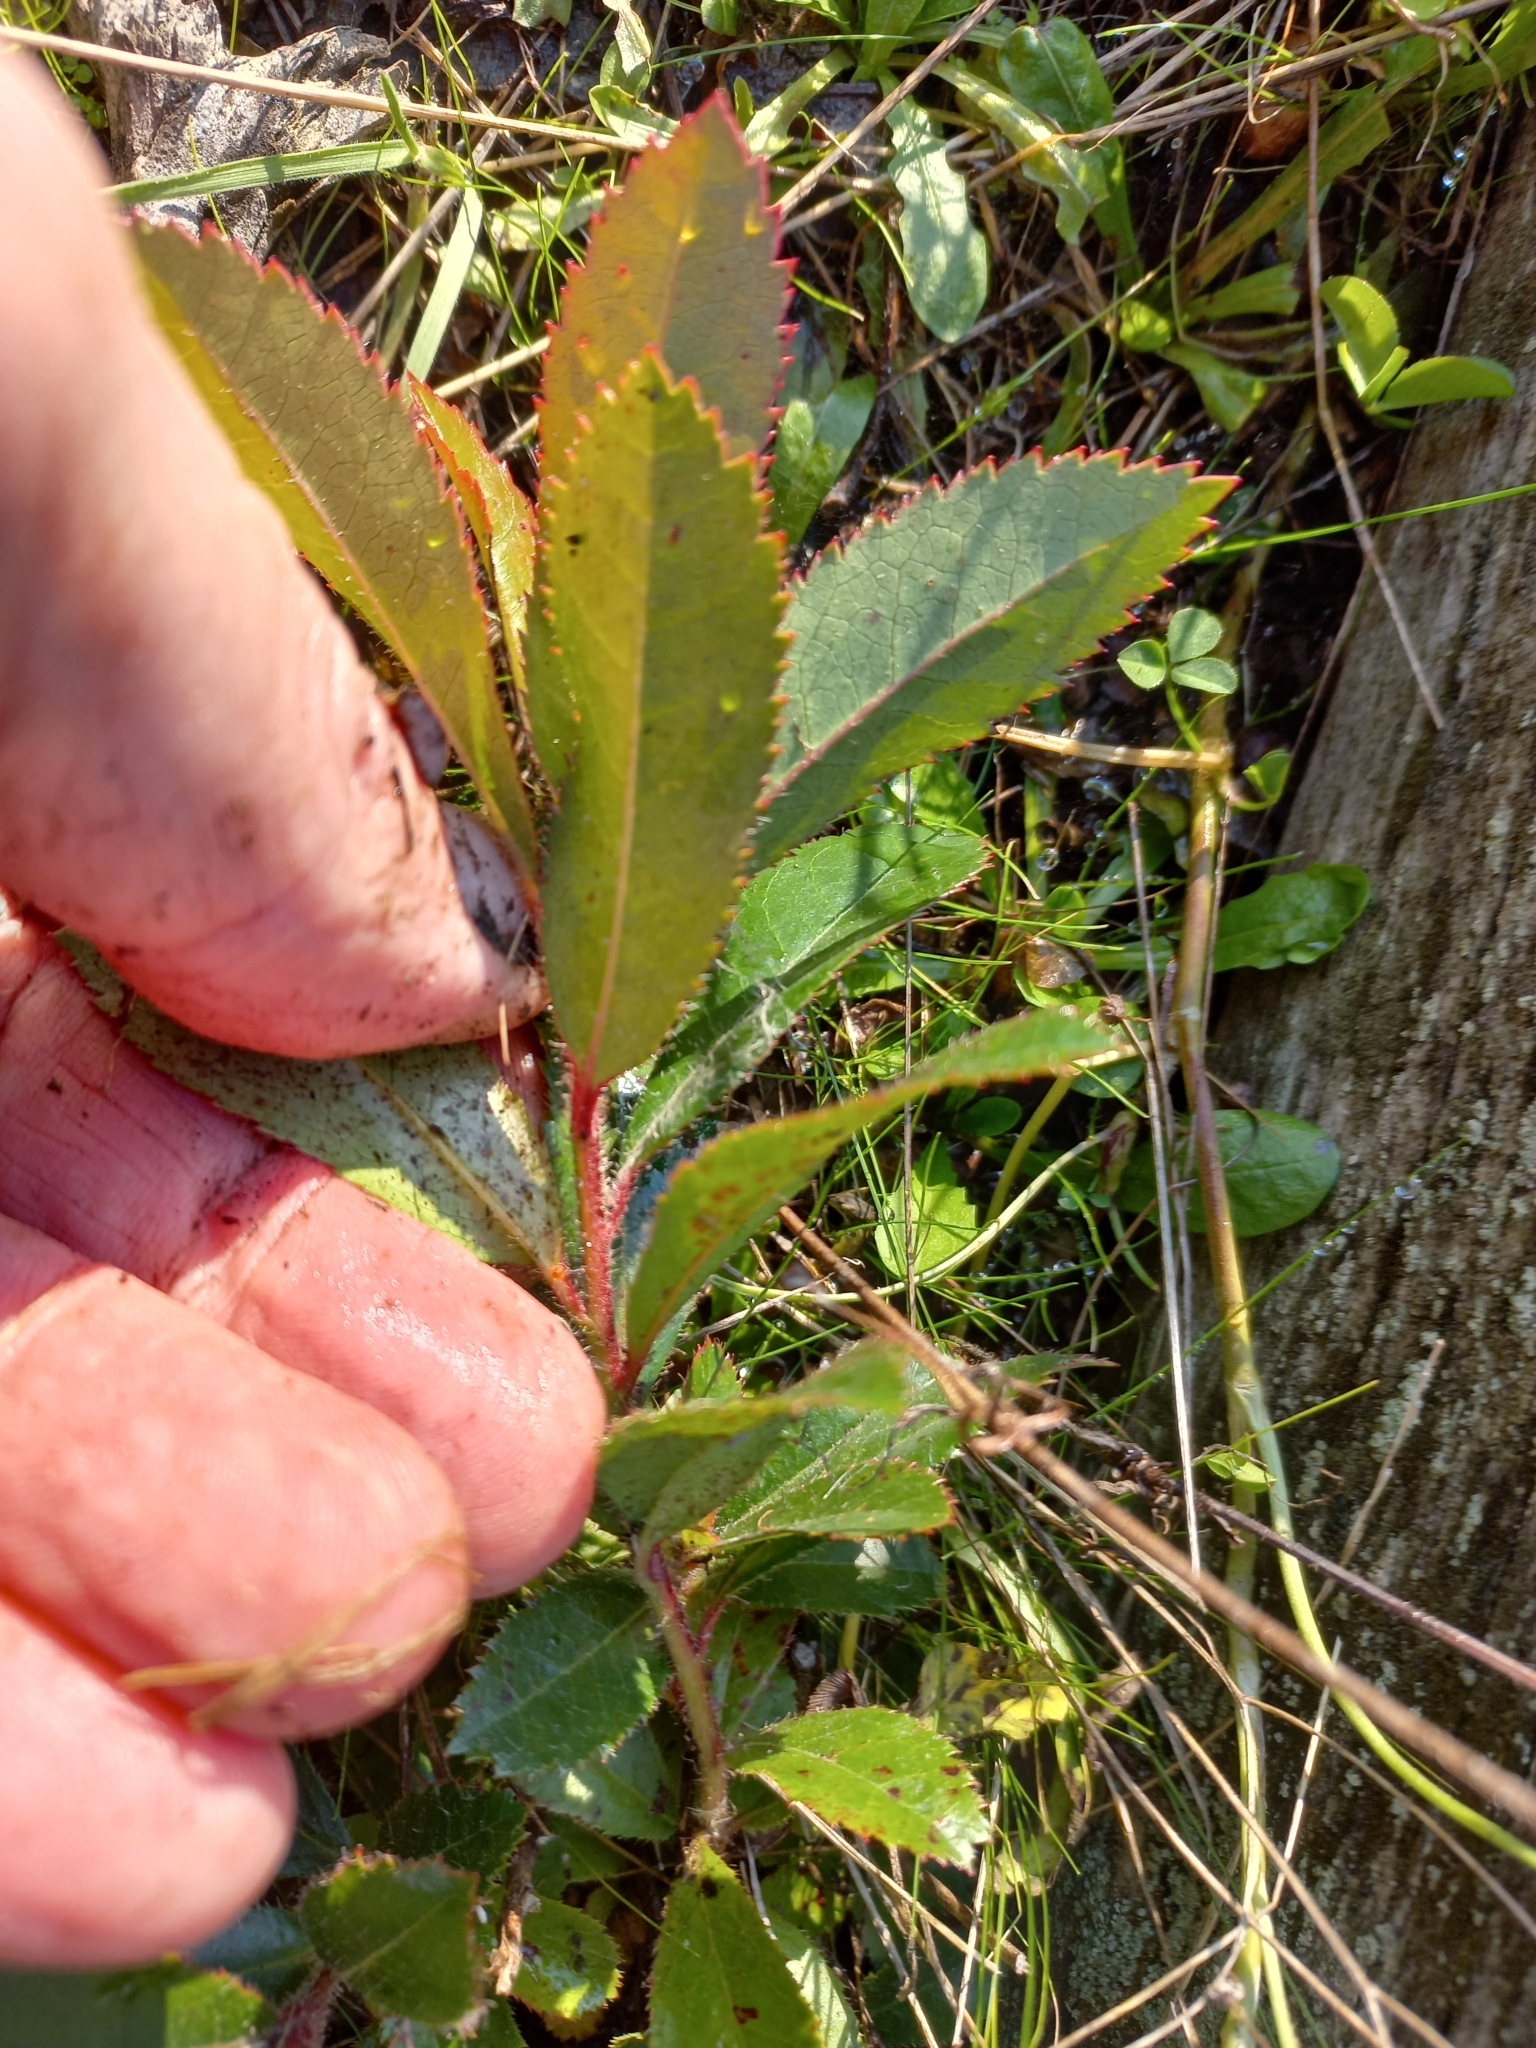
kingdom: Plantae
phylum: Tracheophyta
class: Magnoliopsida
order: Ericales
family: Ericaceae
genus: Arbutus
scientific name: Arbutus unedo
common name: Strawberry-tree
